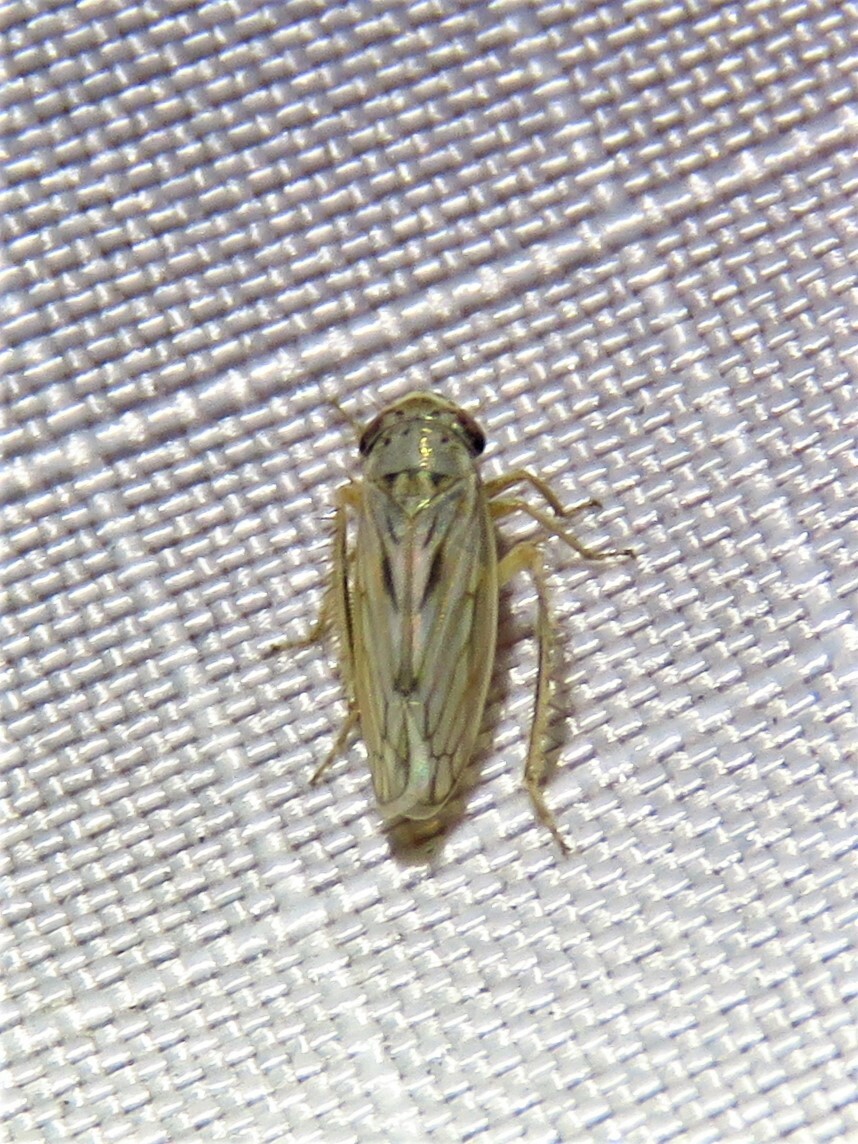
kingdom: Animalia
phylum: Arthropoda
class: Insecta
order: Hemiptera
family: Cicadellidae
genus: Exitianus
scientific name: Exitianus exitiosus
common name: Gray lawn leafhopper
